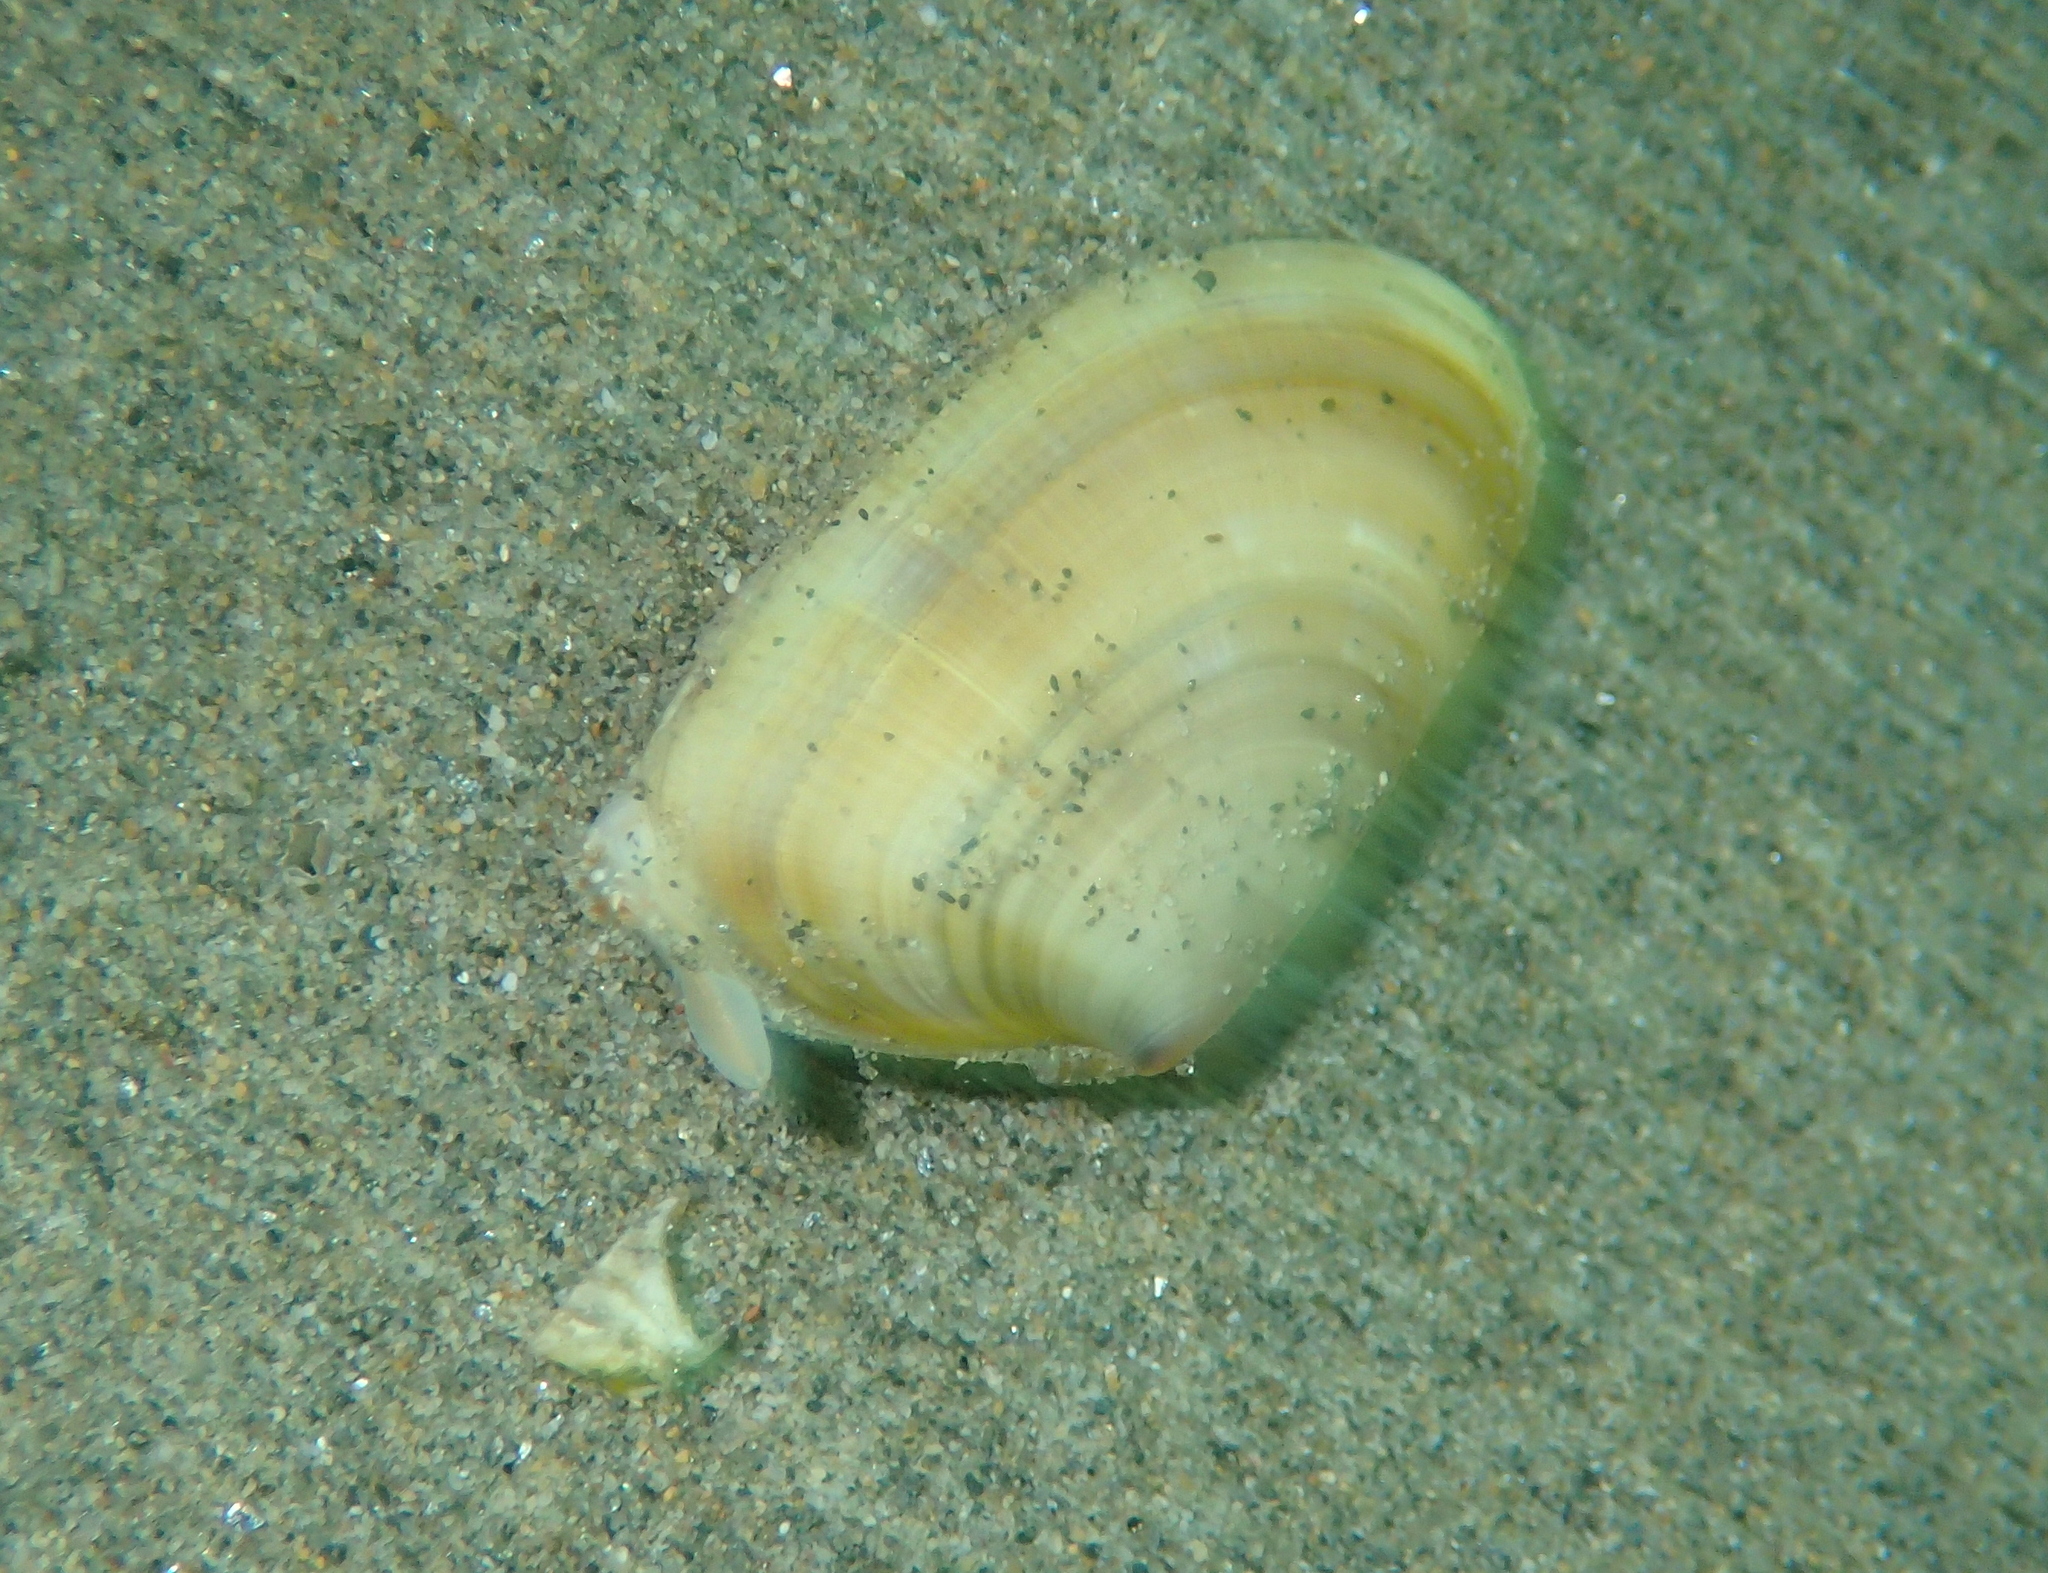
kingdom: Animalia
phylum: Mollusca
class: Bivalvia
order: Cardiida
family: Donacidae
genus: Donax
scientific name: Donax trunculus
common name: Truncate donax
